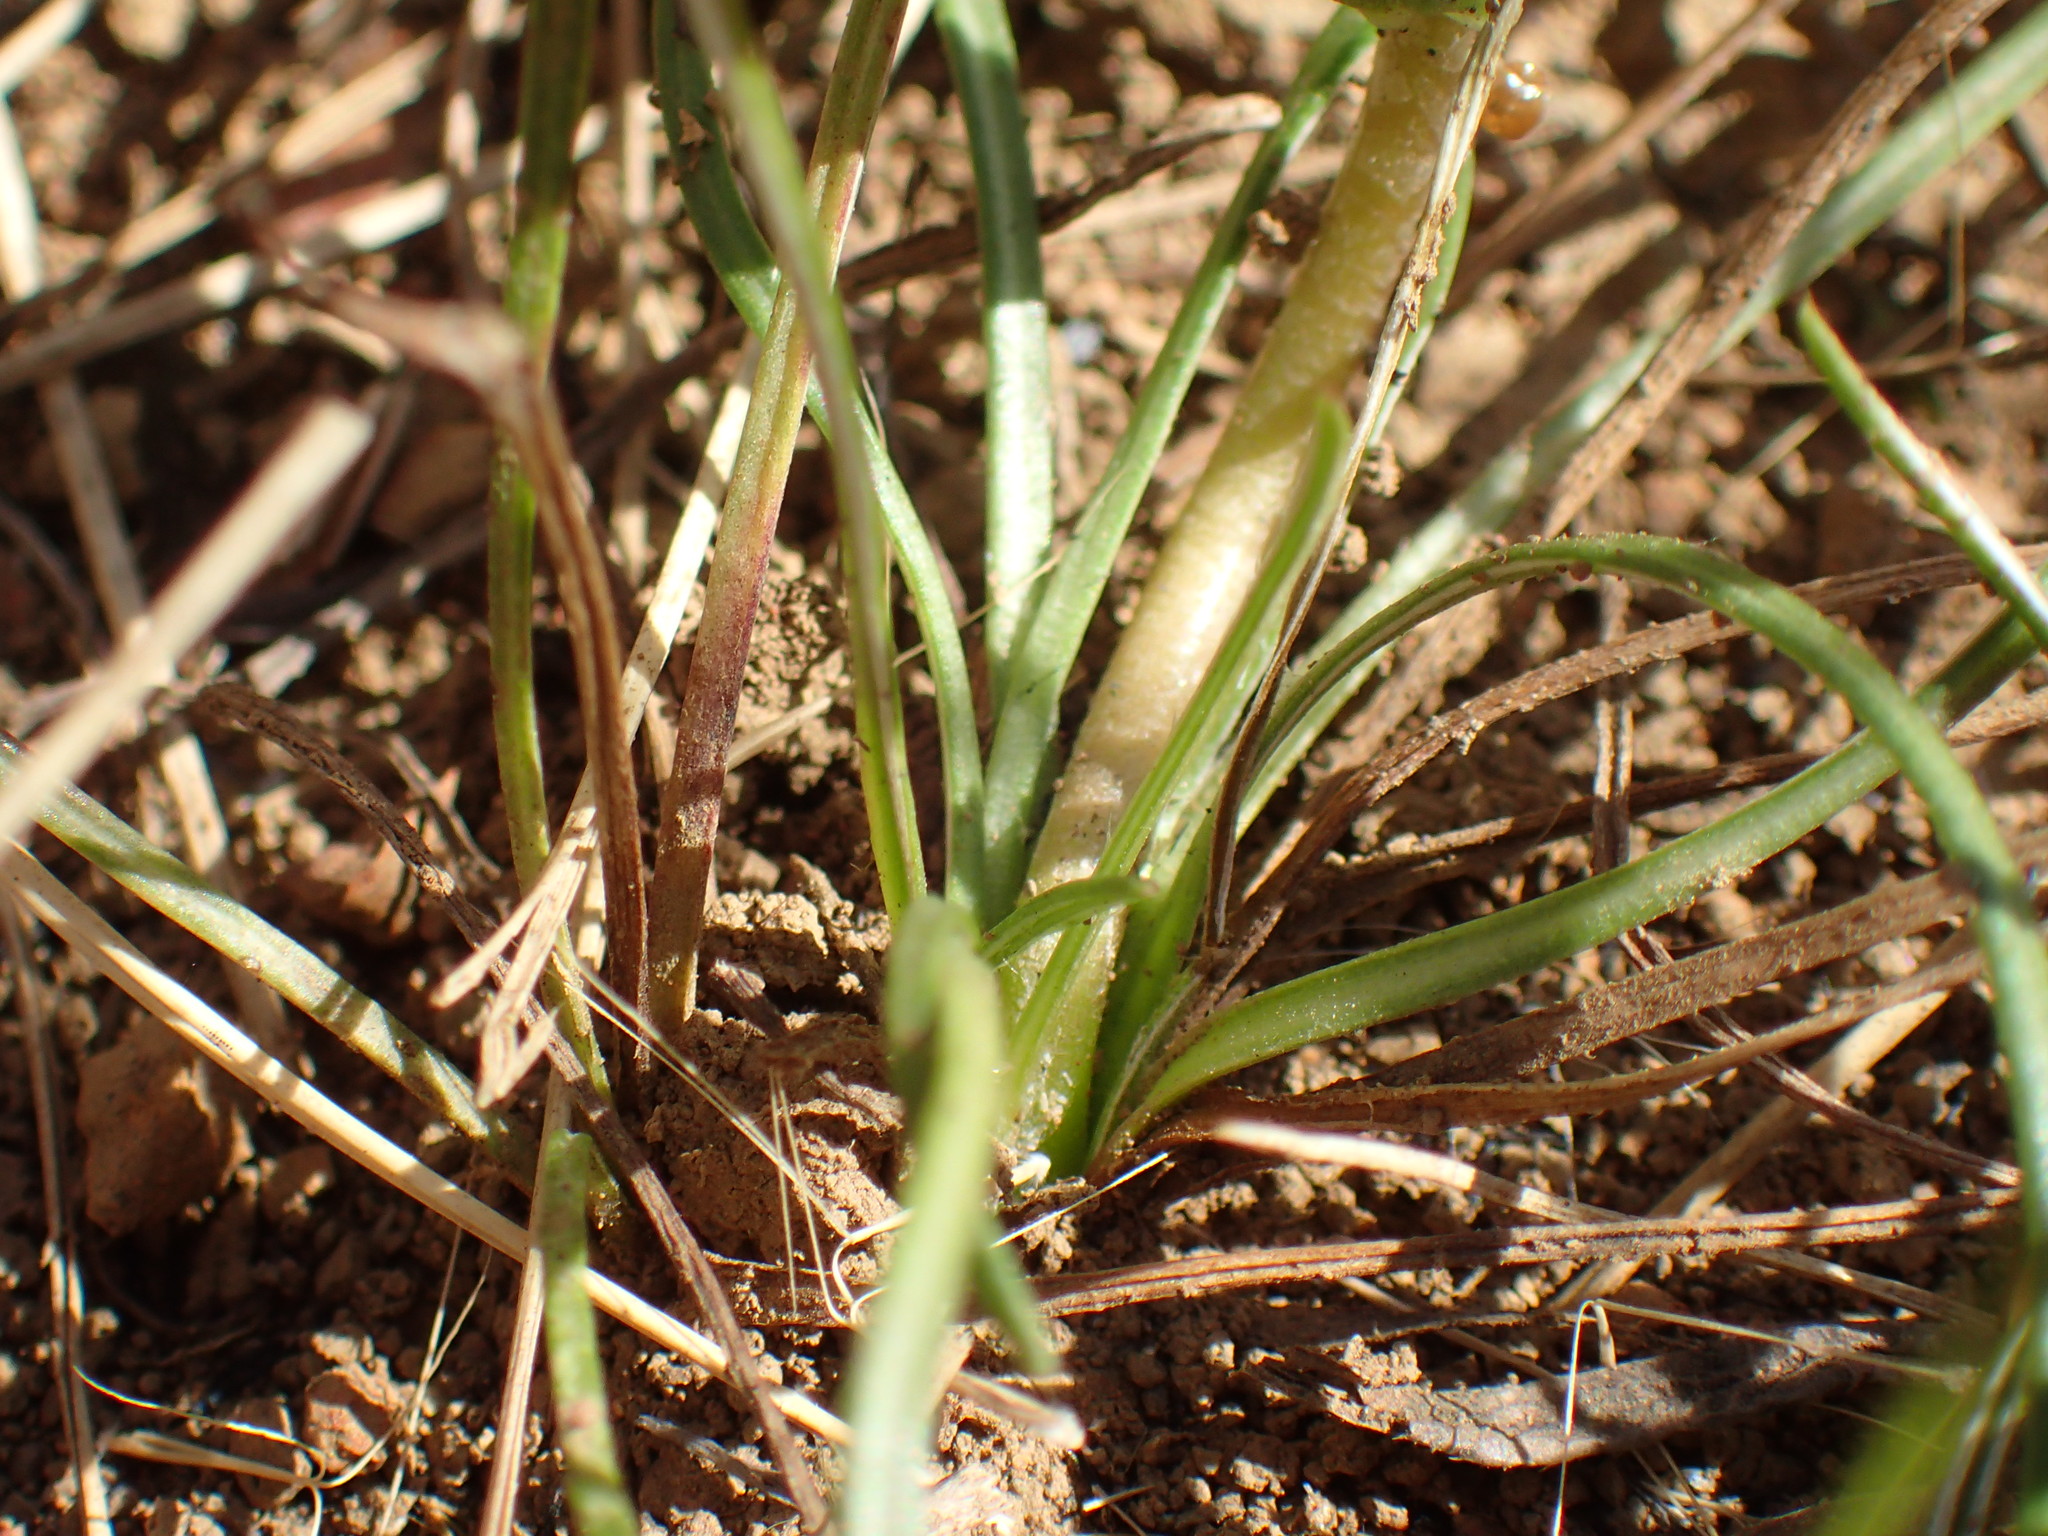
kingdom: Plantae
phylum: Tracheophyta
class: Magnoliopsida
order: Asterales
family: Asteraceae
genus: Gazania
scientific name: Gazania linearis
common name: Treasureflower
